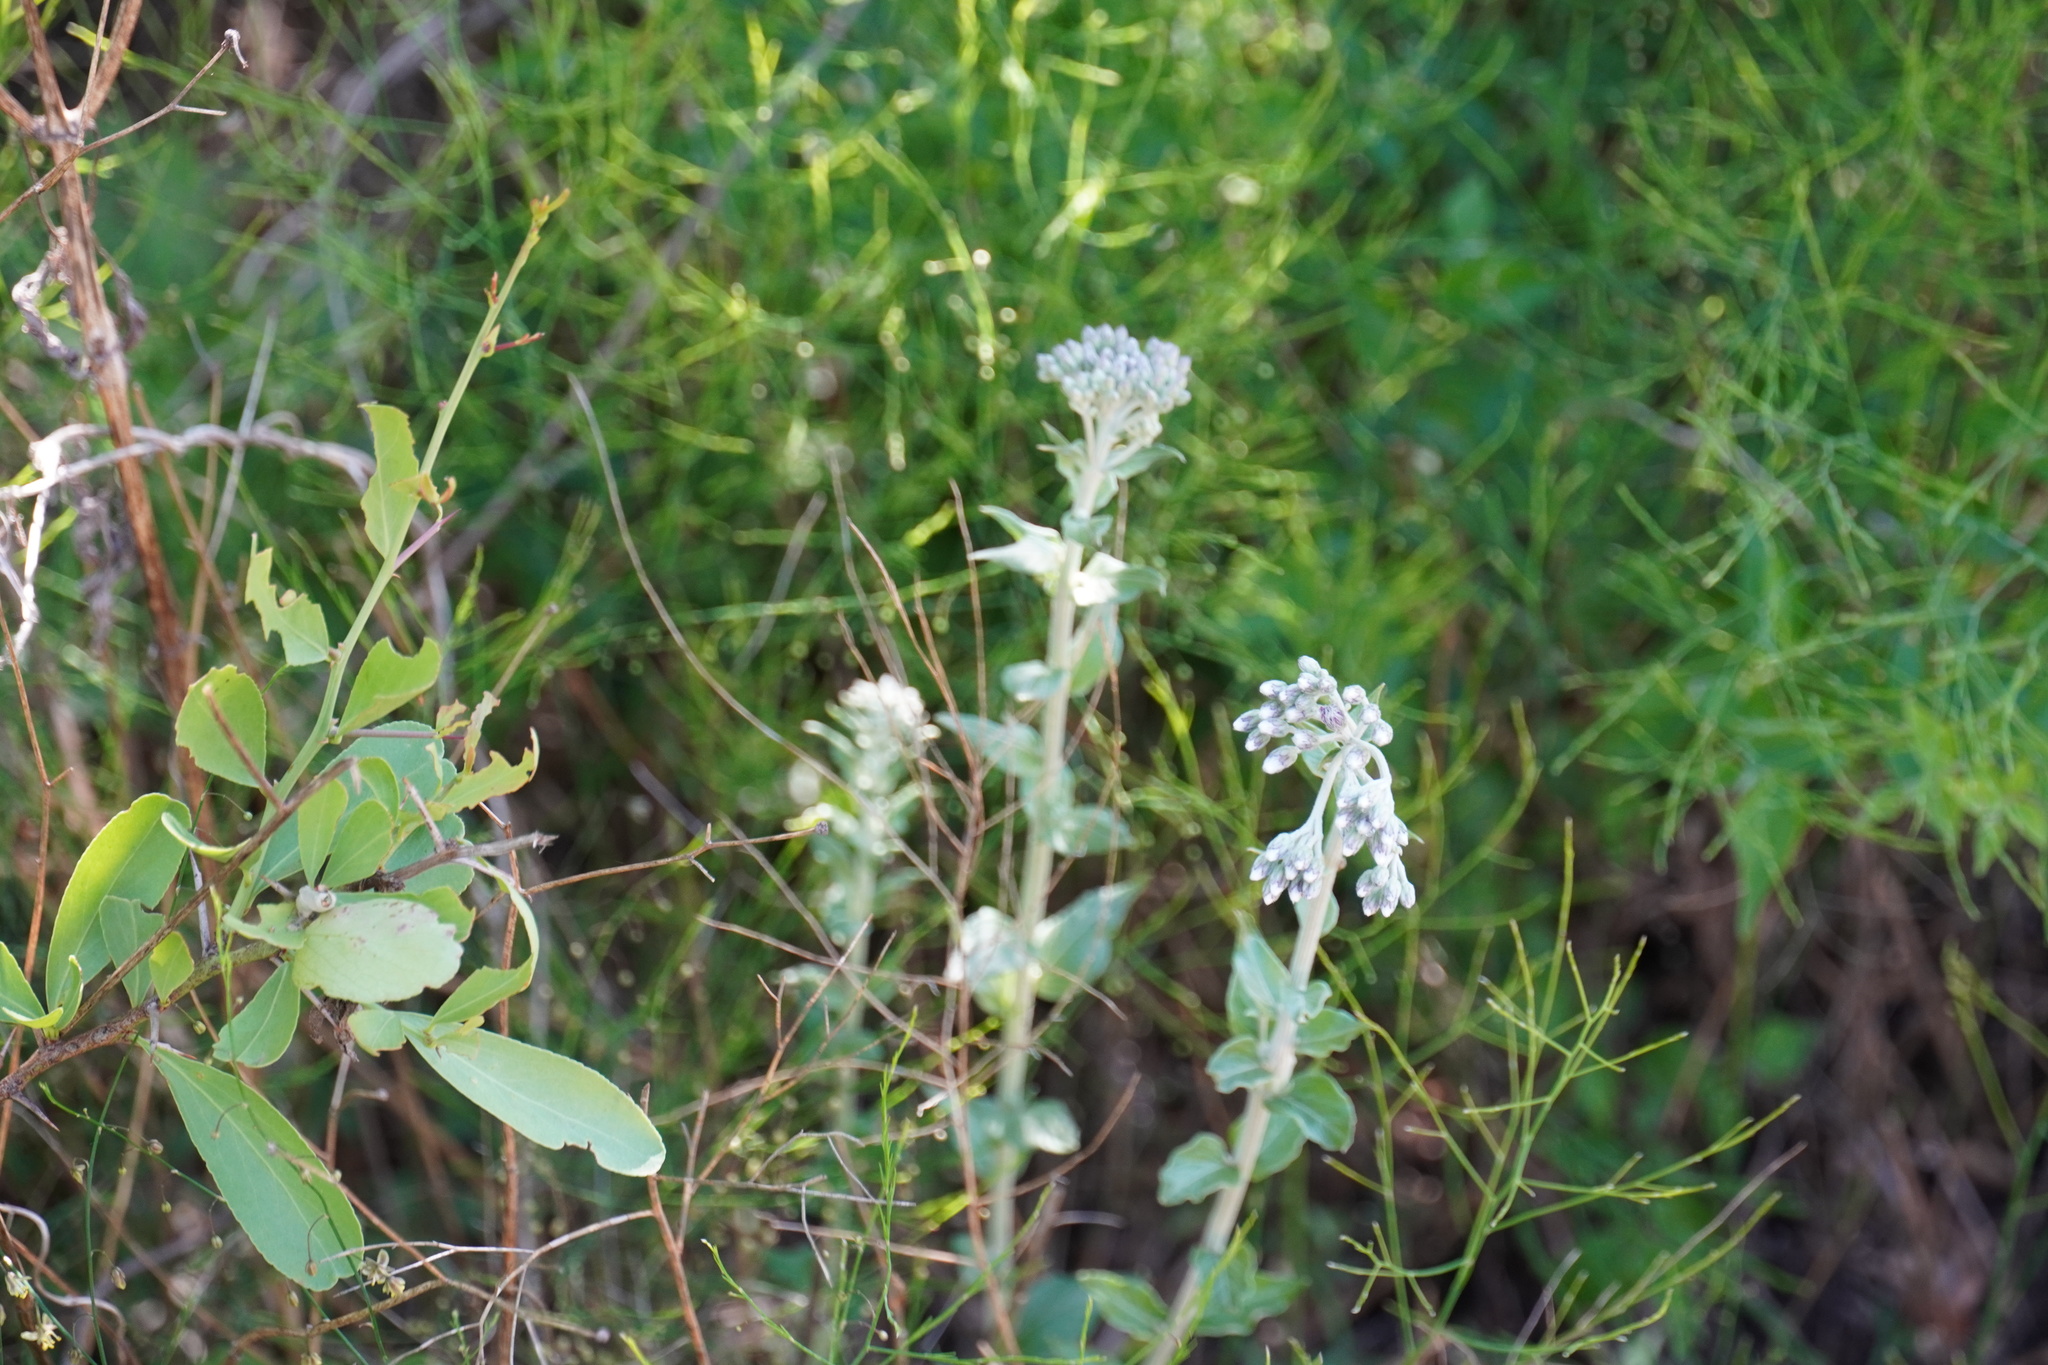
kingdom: Plantae
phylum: Tracheophyta
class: Magnoliopsida
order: Asterales
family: Asteraceae
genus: Hilliardiella
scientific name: Hilliardiella oligocephala
